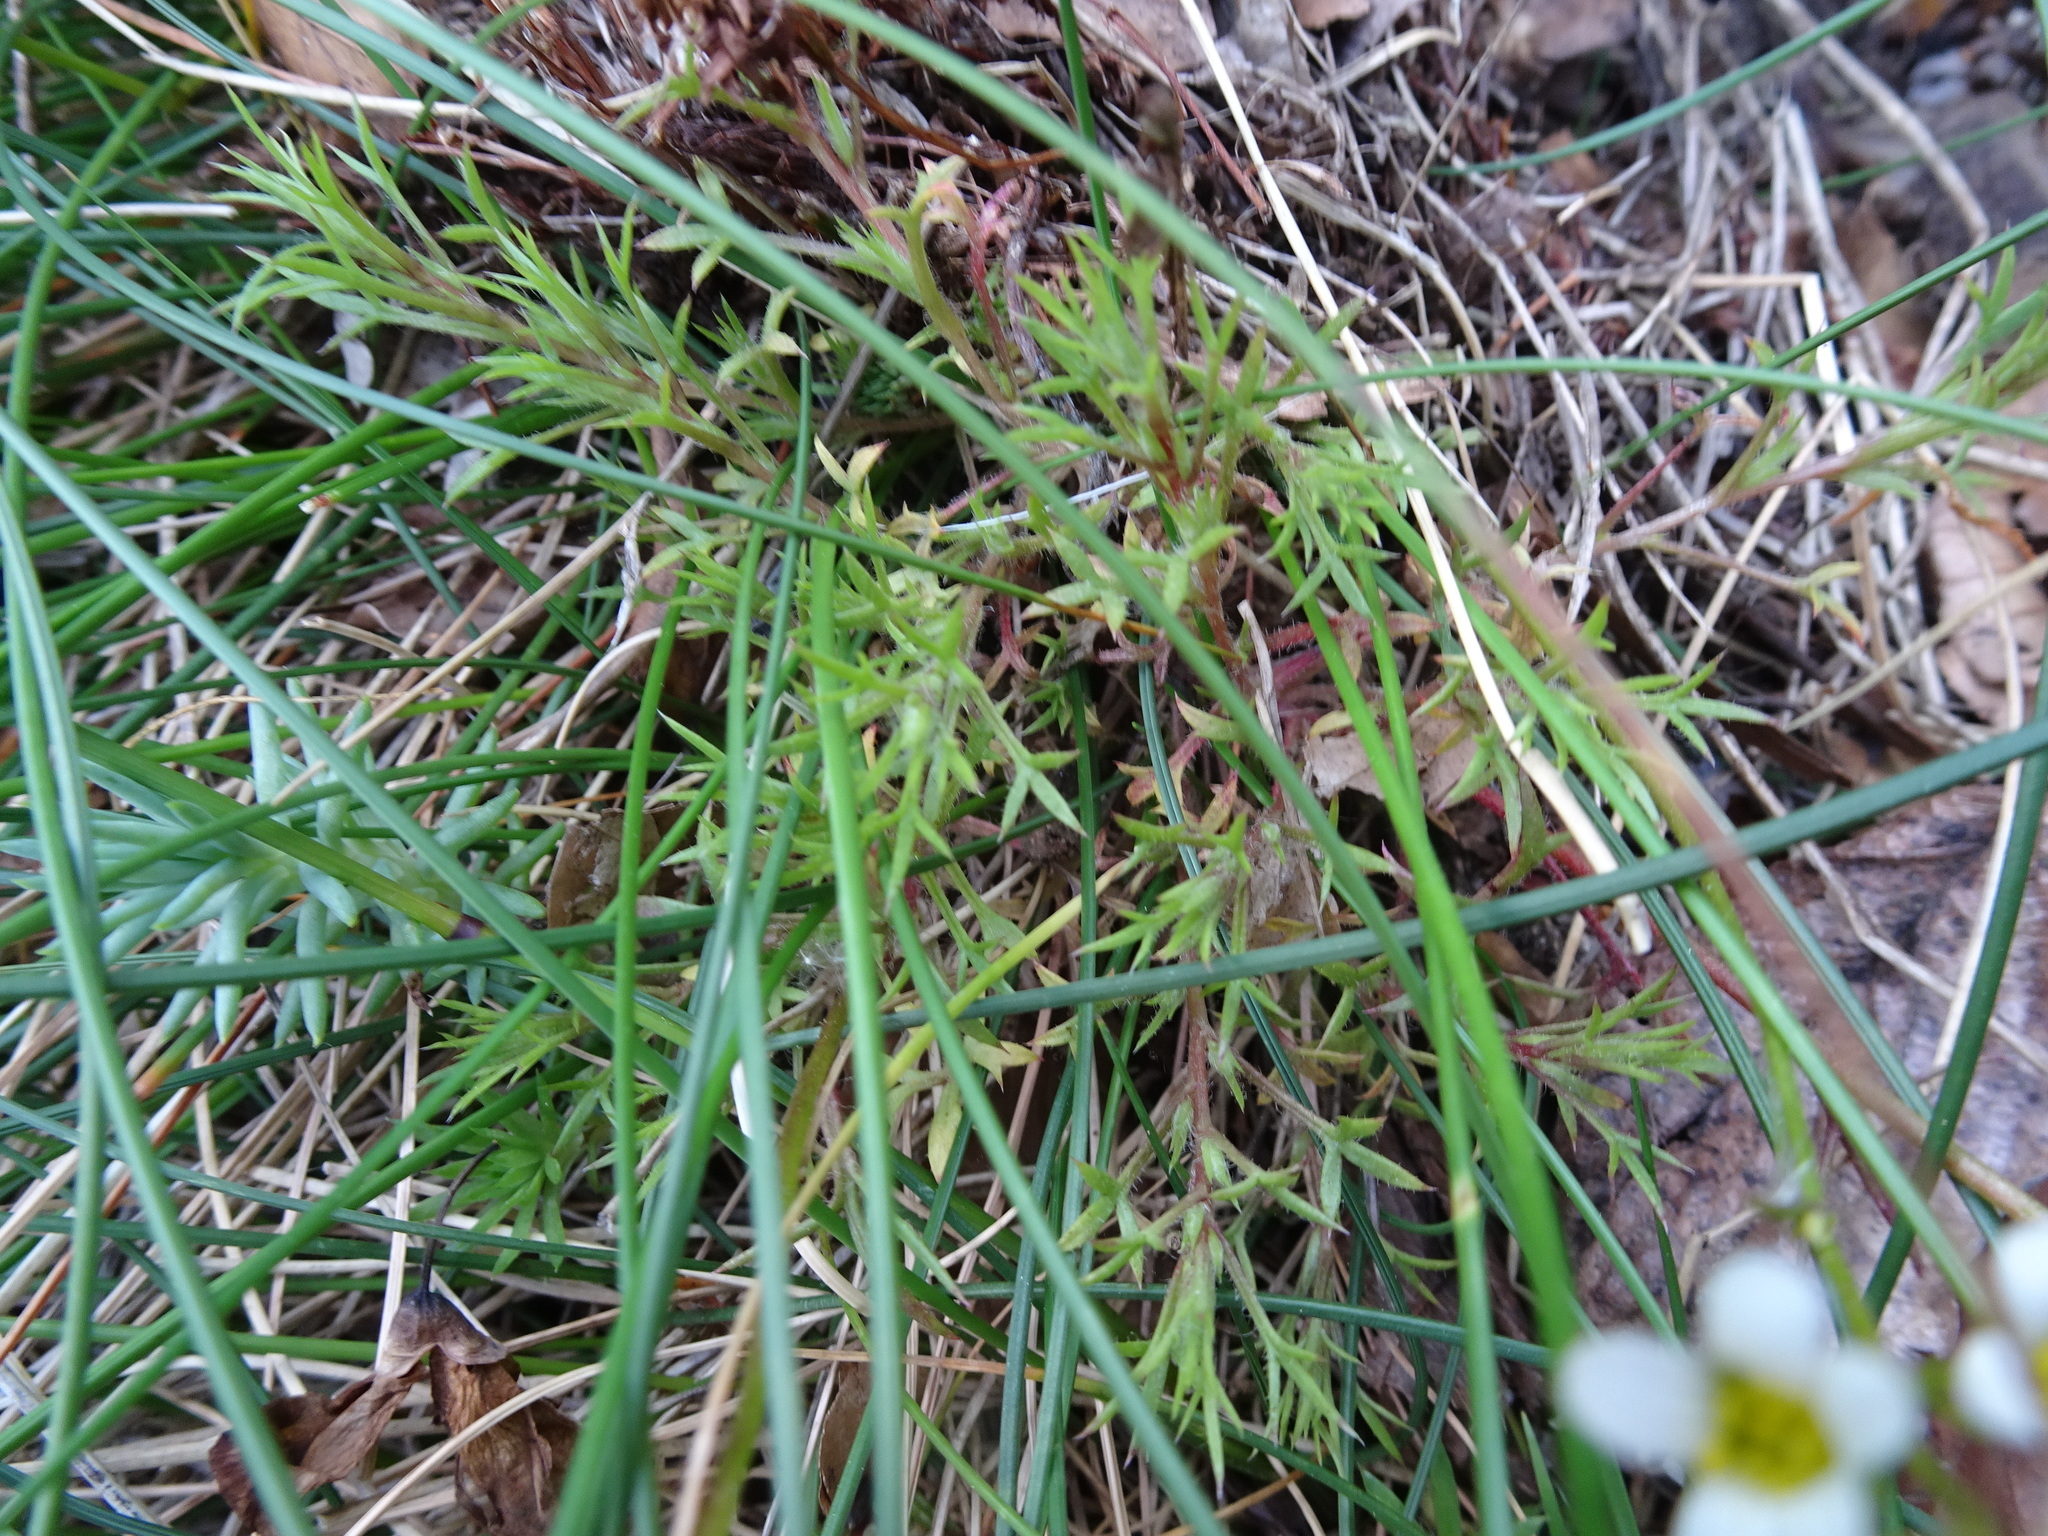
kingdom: Plantae
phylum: Tracheophyta
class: Magnoliopsida
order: Saxifragales
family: Saxifragaceae
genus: Saxifraga
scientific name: Saxifraga fragosoi
